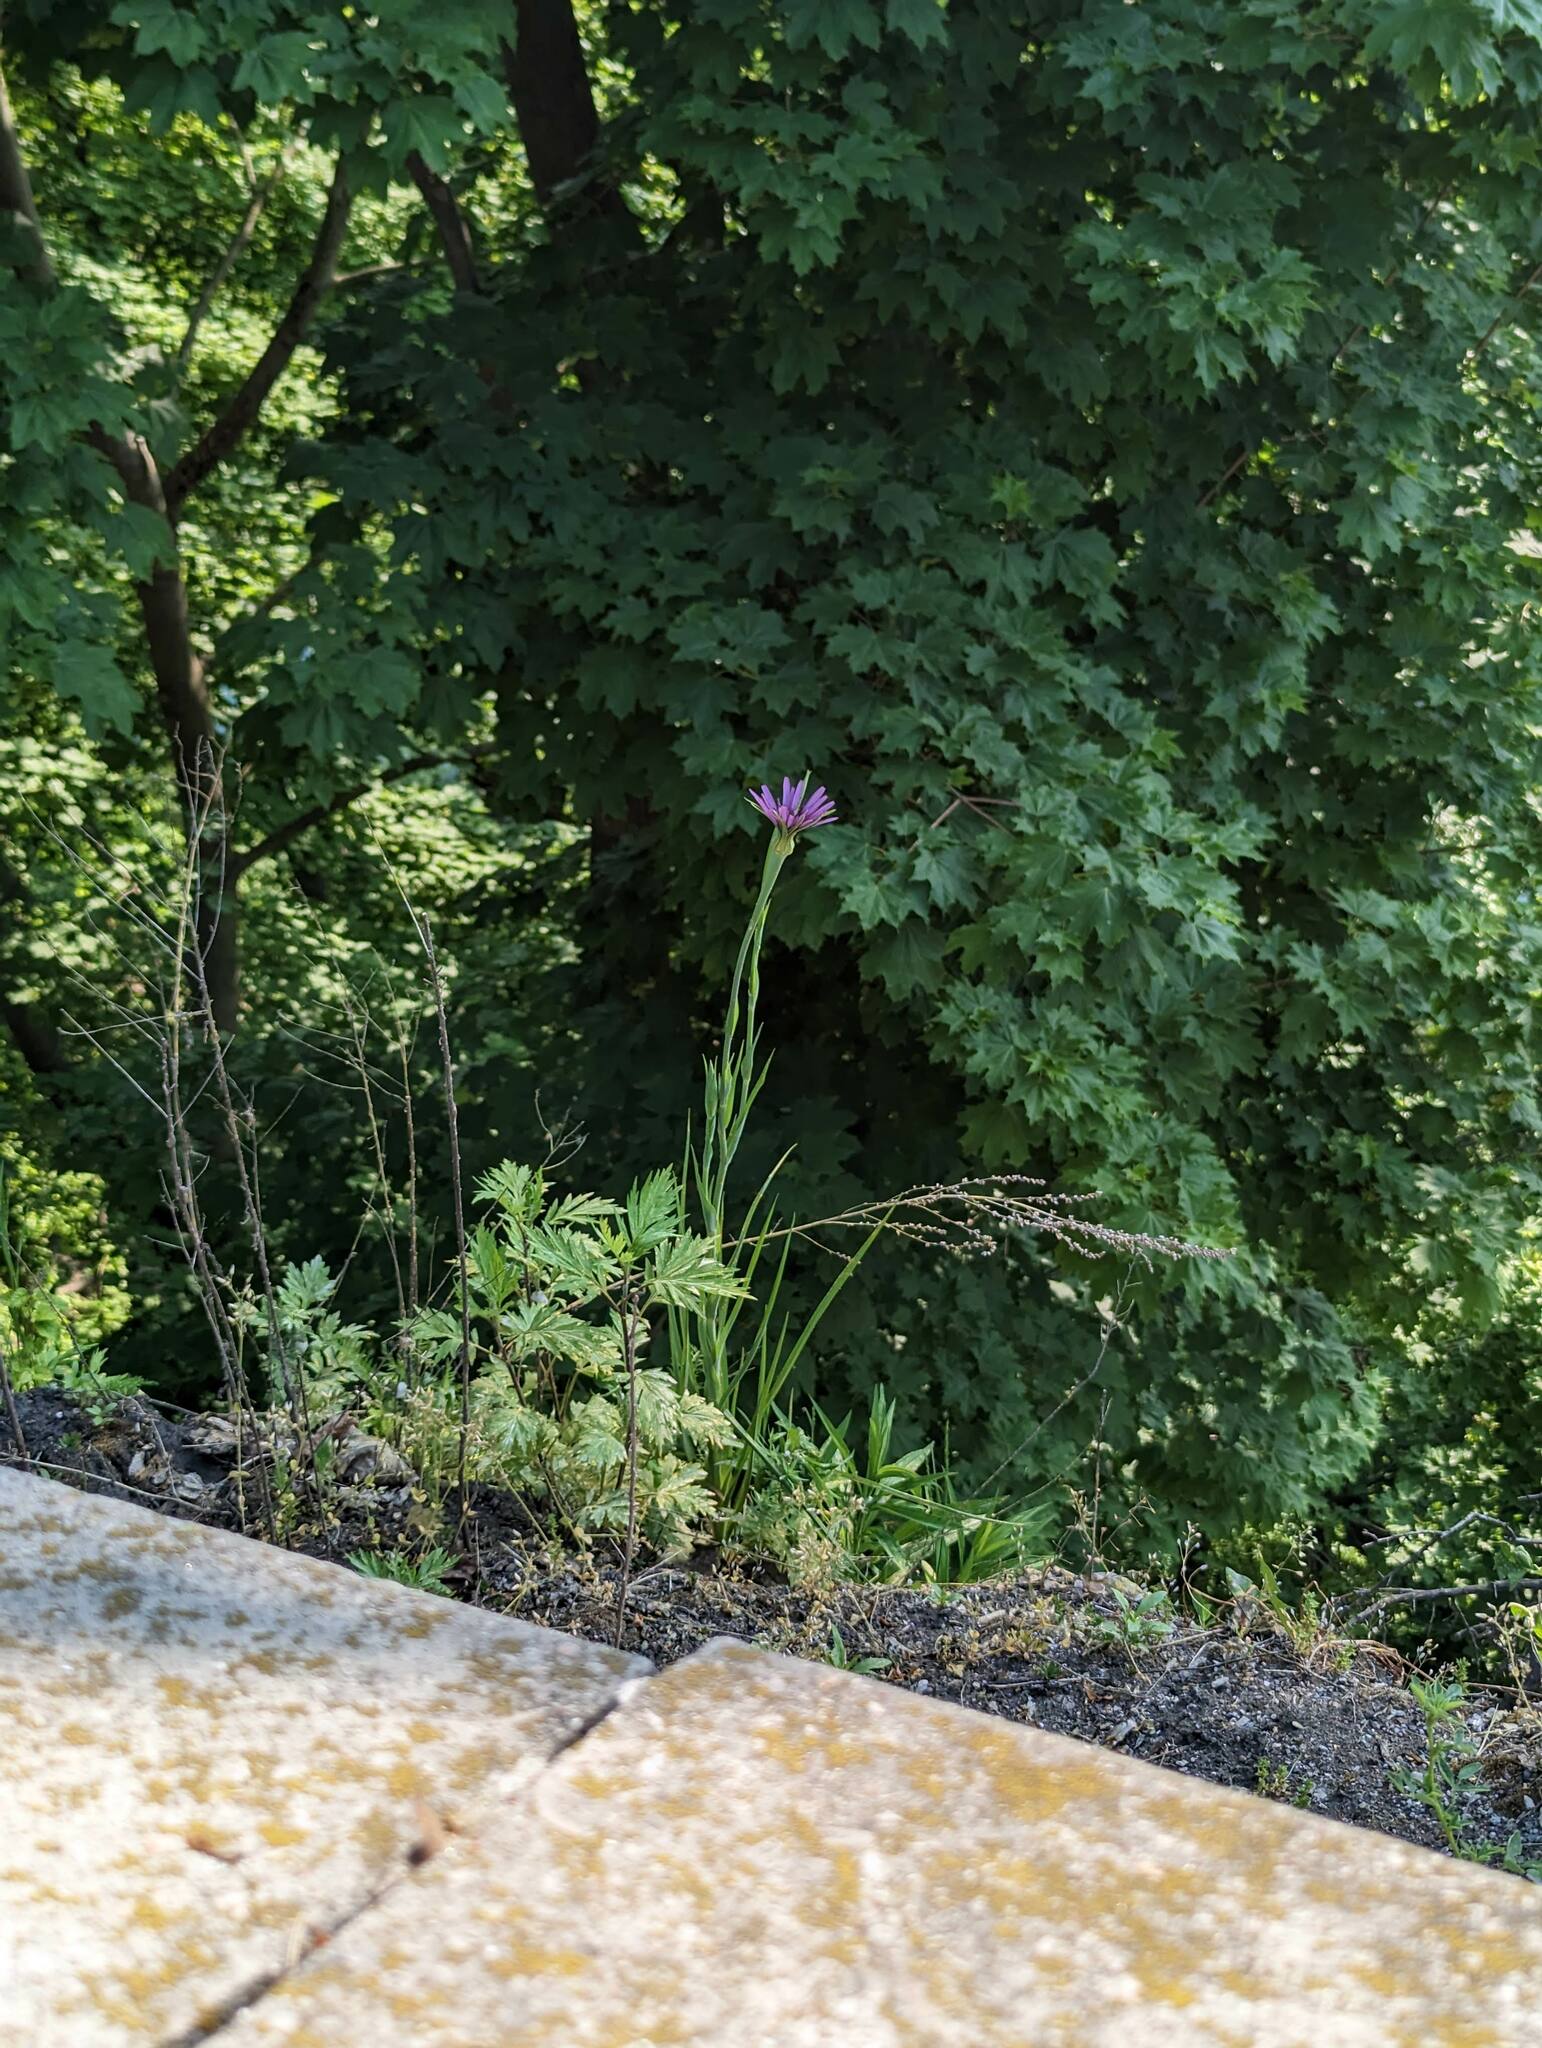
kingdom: Plantae
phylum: Tracheophyta
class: Magnoliopsida
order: Asterales
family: Asteraceae
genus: Tragopogon
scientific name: Tragopogon porrifolius
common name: Salsify
